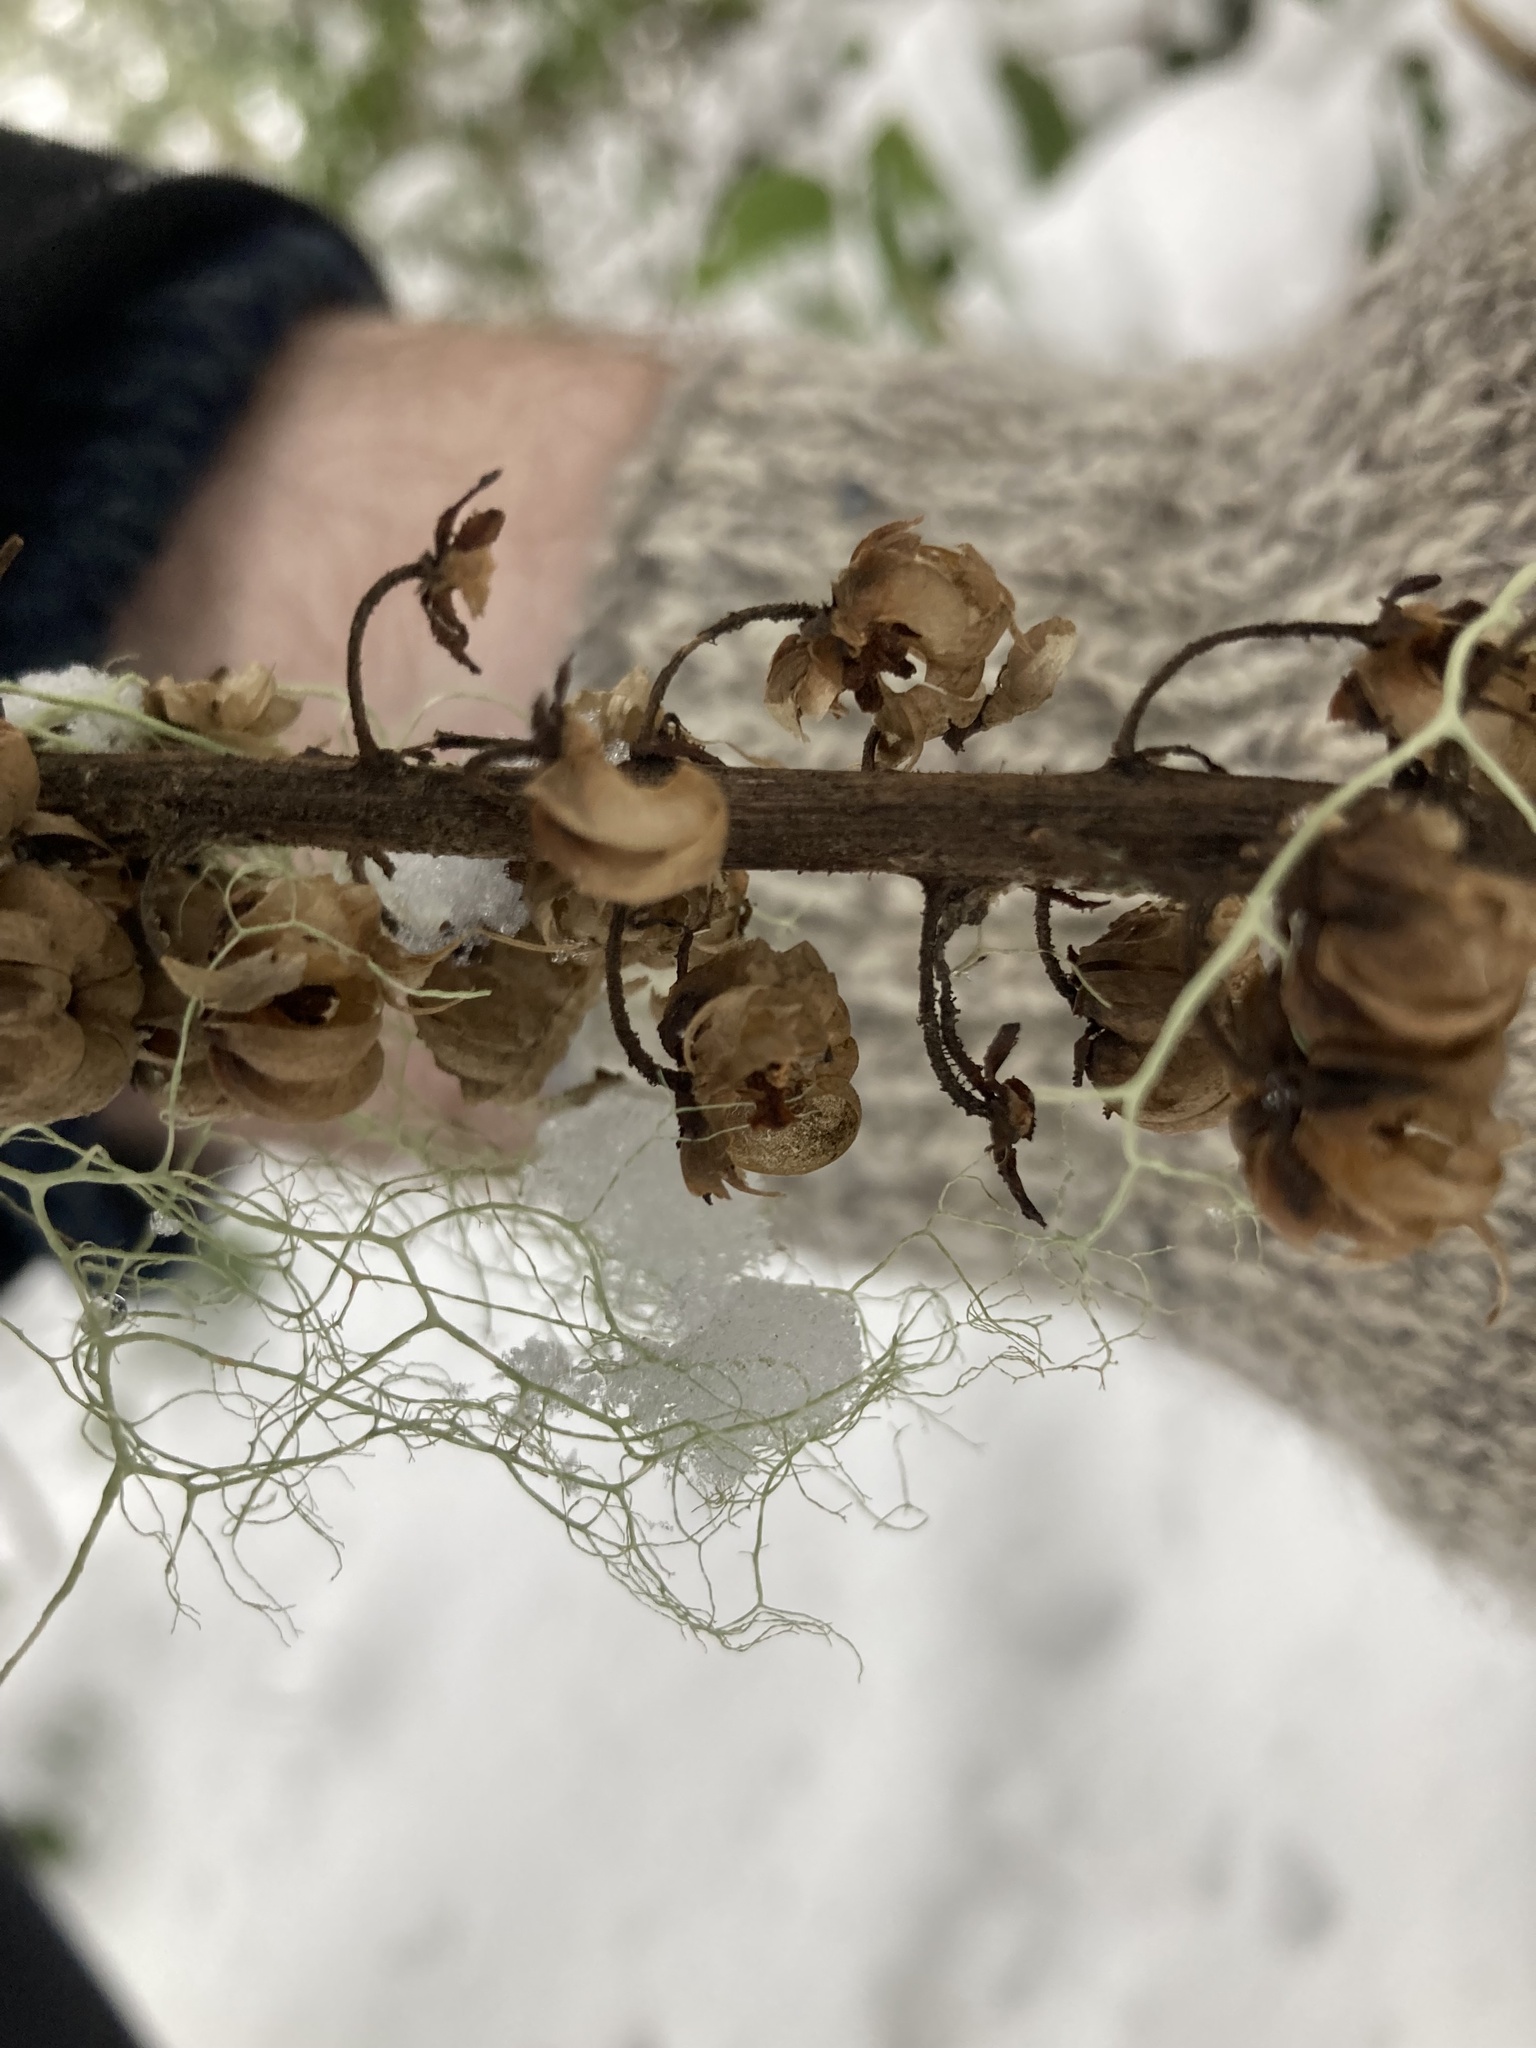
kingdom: Plantae
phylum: Tracheophyta
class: Magnoliopsida
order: Ericales
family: Ericaceae
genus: Pterospora
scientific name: Pterospora andromedea
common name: Giant bird's-nest
